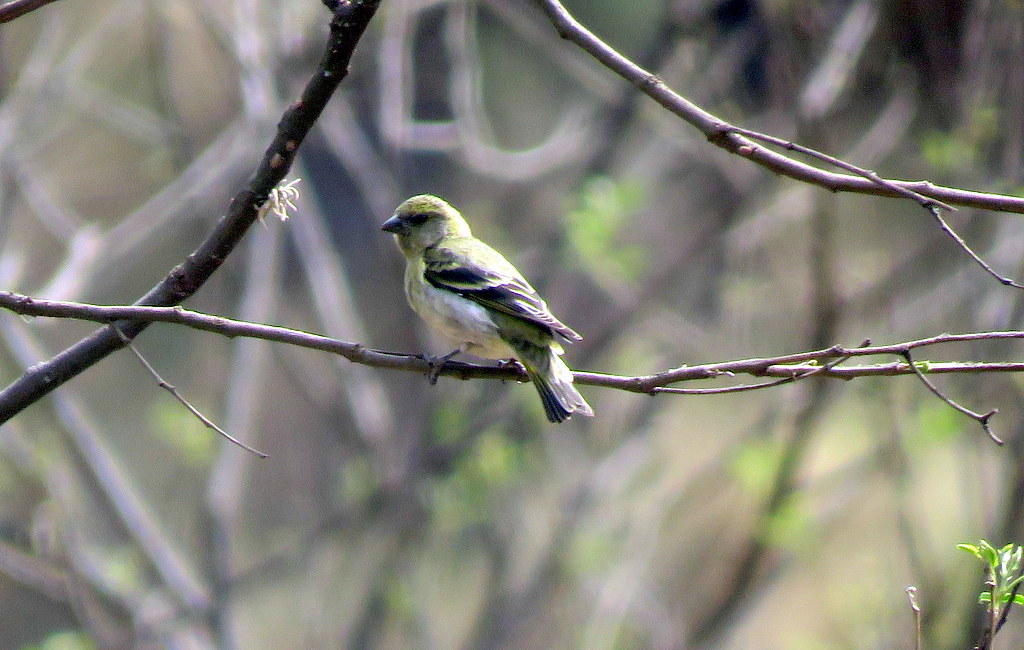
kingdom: Animalia
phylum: Chordata
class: Aves
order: Passeriformes
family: Fringillidae
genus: Spinus
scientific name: Spinus magellanicus
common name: Hooded siskin
